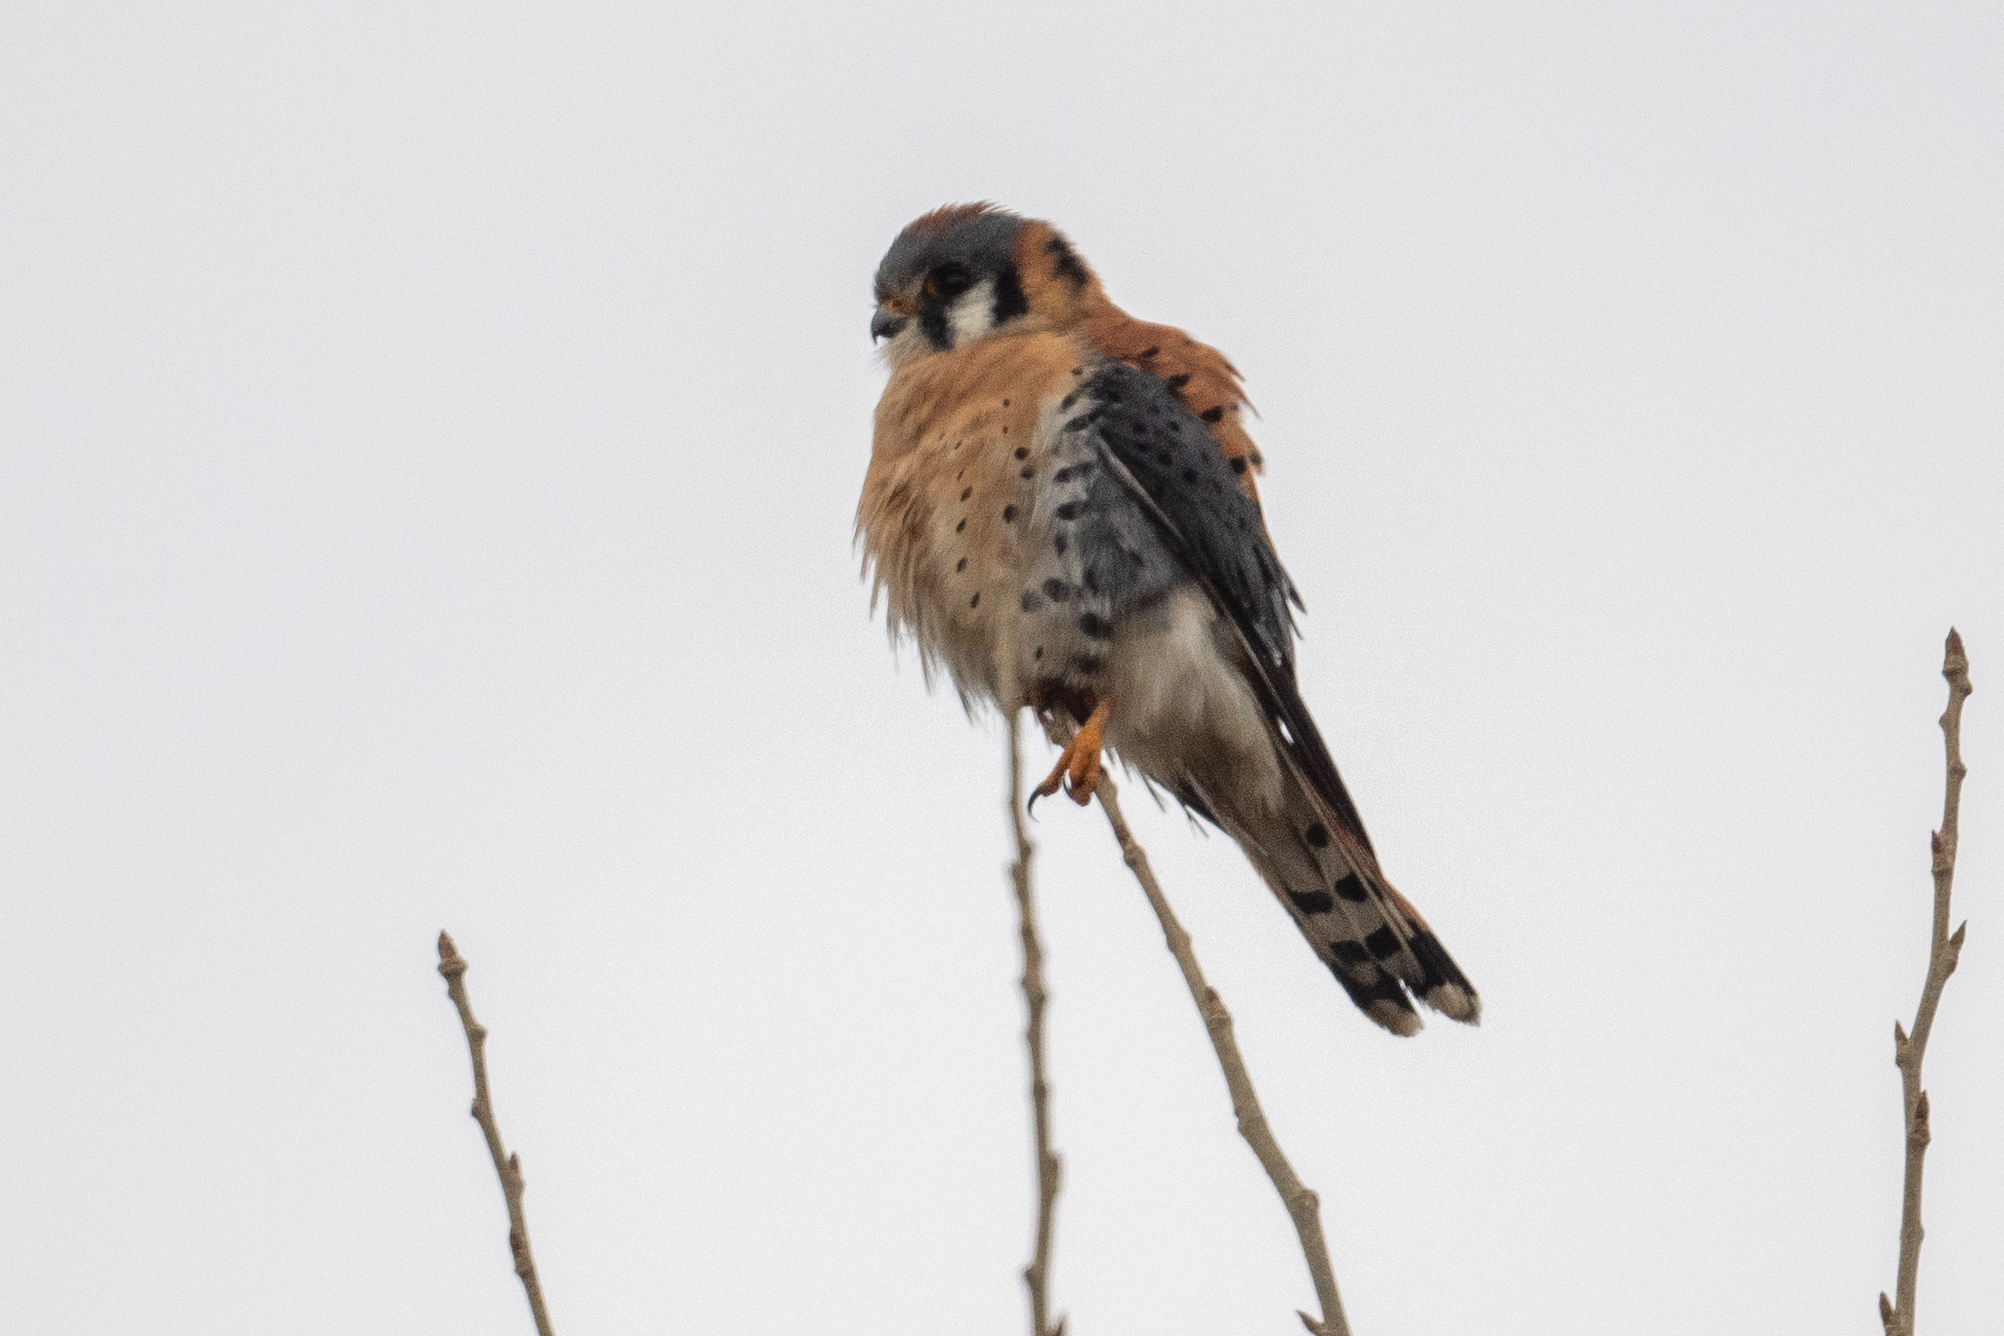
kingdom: Animalia
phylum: Chordata
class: Aves
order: Falconiformes
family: Falconidae
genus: Falco
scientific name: Falco sparverius
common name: American kestrel
